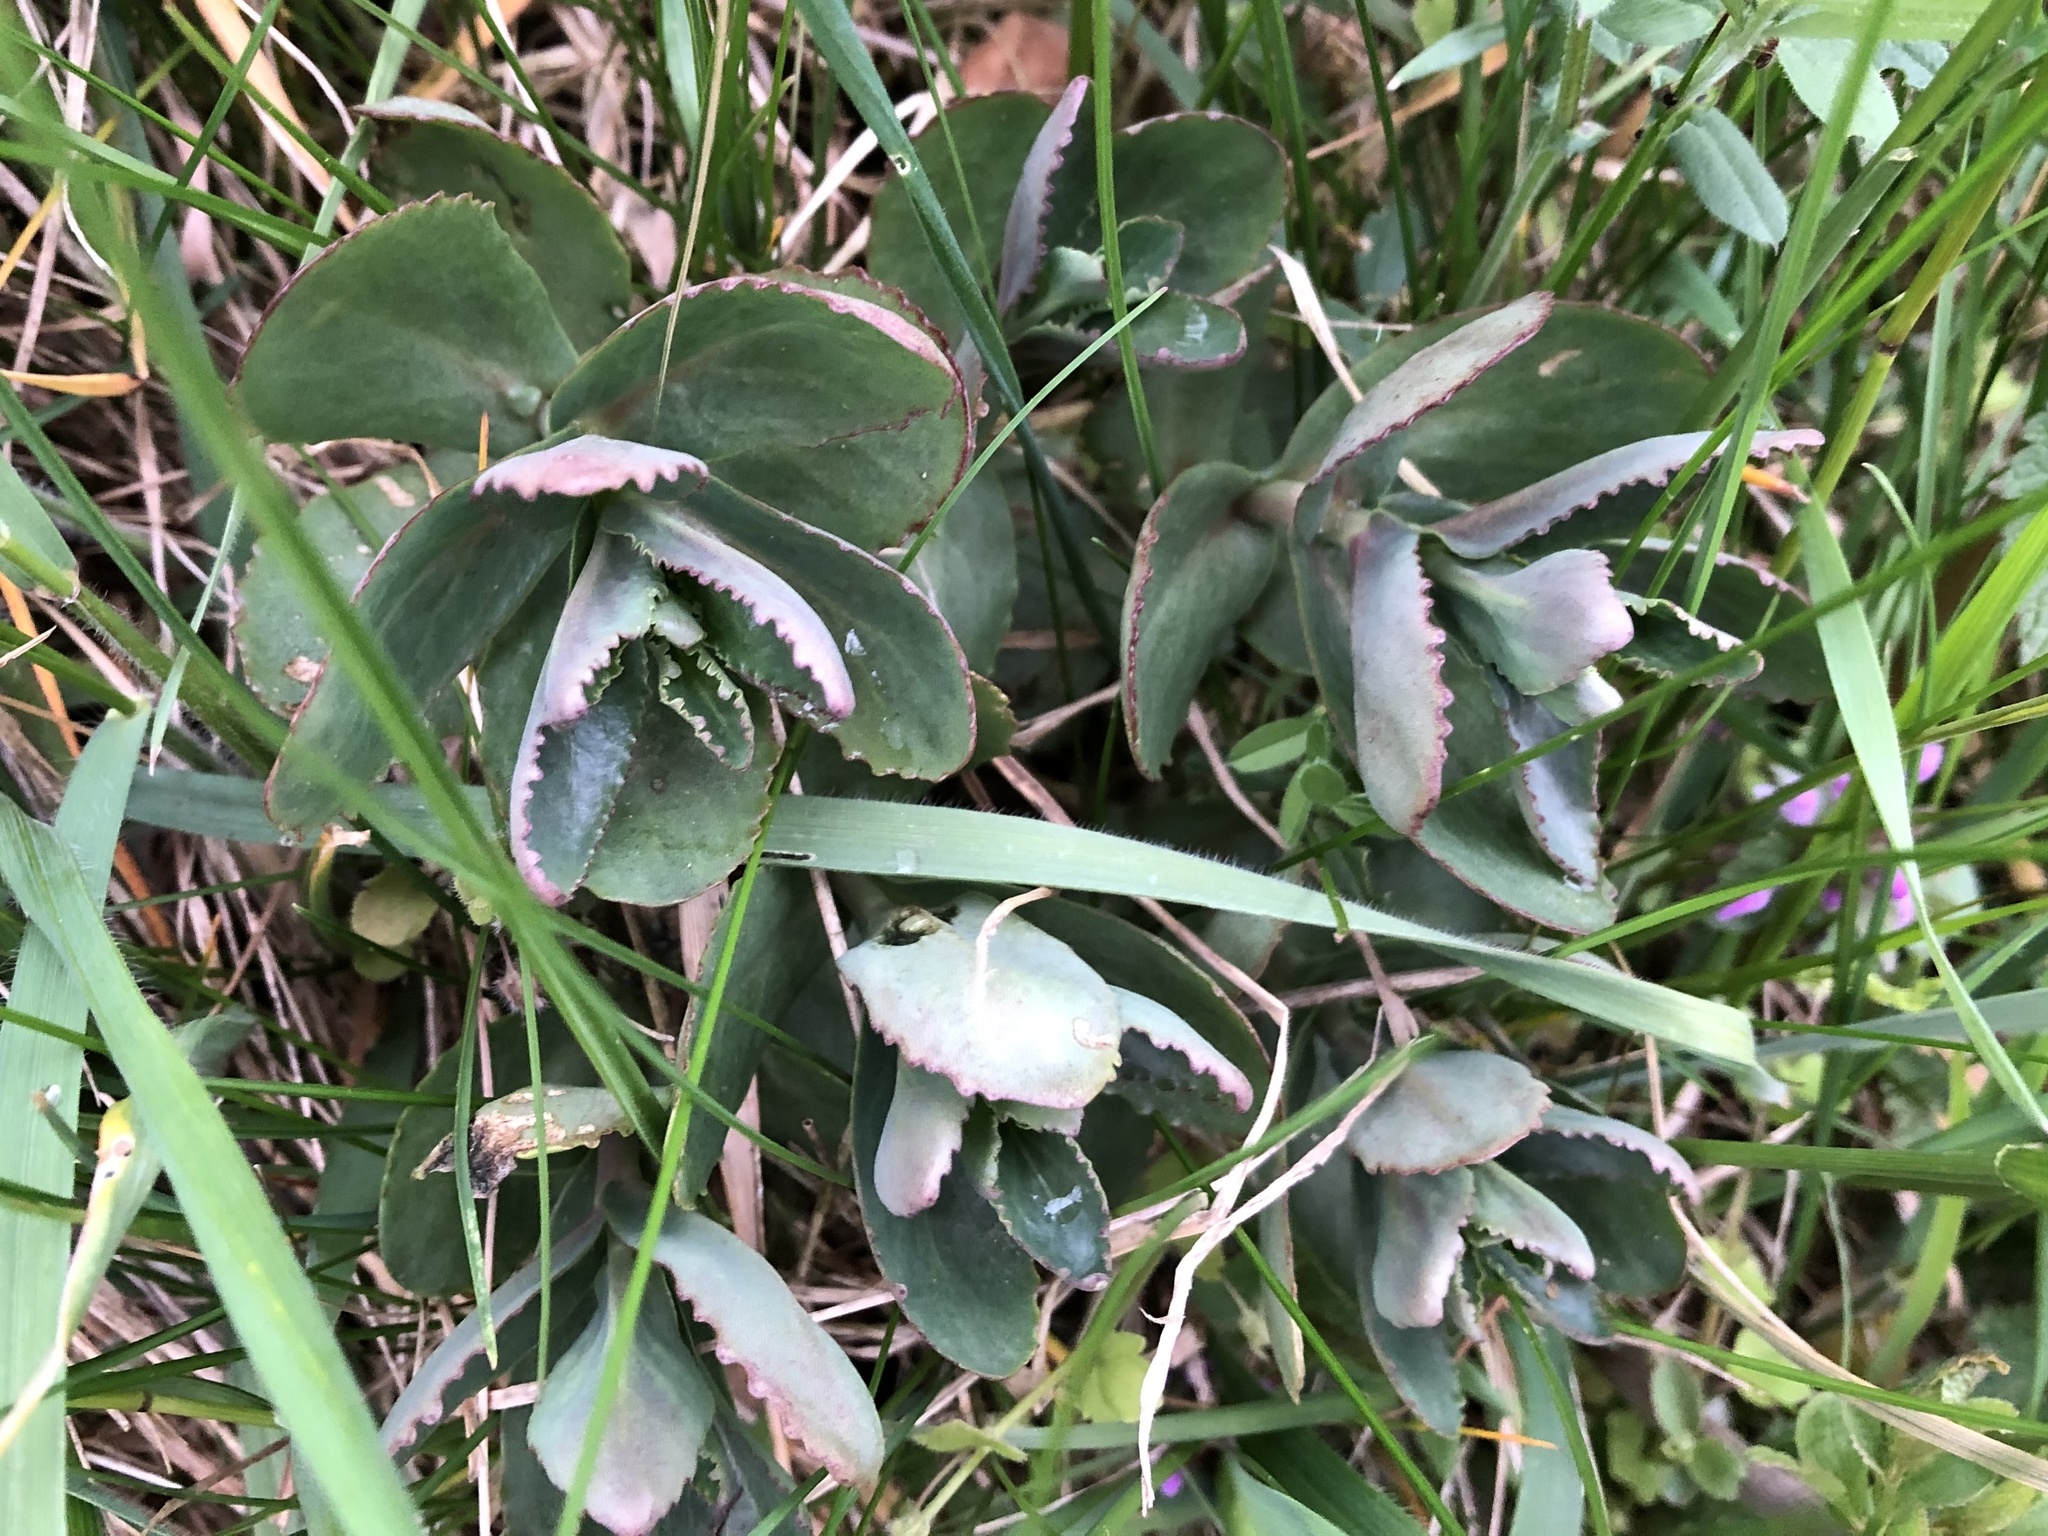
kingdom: Plantae
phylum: Tracheophyta
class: Magnoliopsida
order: Saxifragales
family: Crassulaceae
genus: Hylotelephium
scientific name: Hylotelephium maximum
